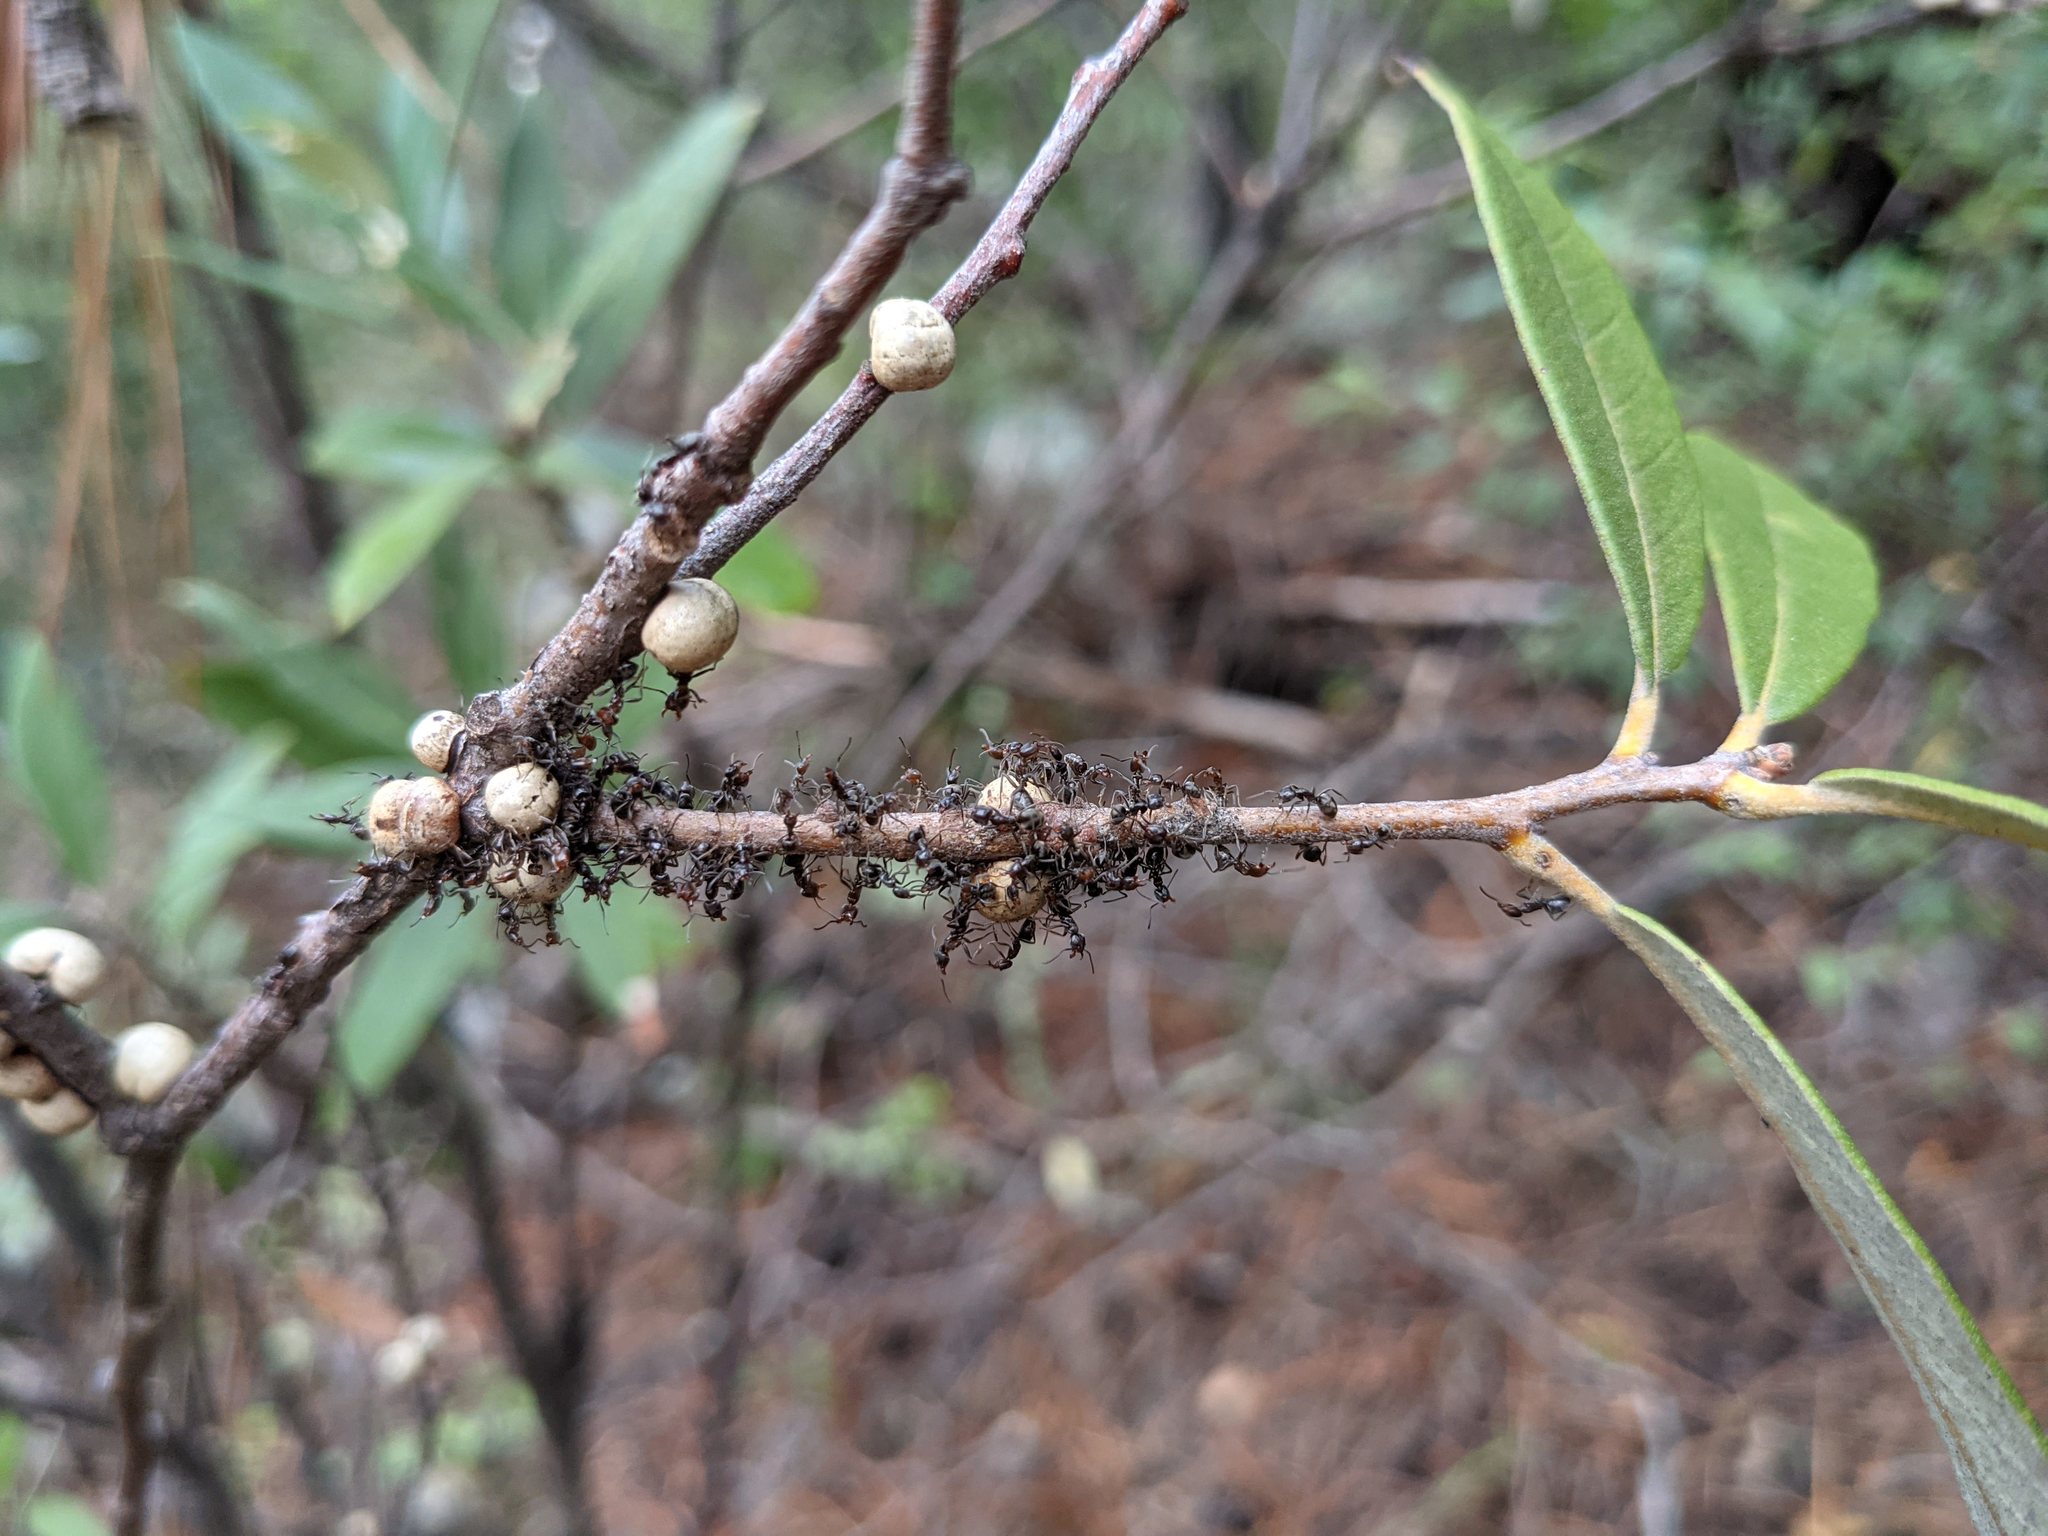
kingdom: Animalia
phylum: Arthropoda
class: Insecta
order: Hymenoptera
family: Formicidae
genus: Liometopum
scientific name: Liometopum luctuosum
